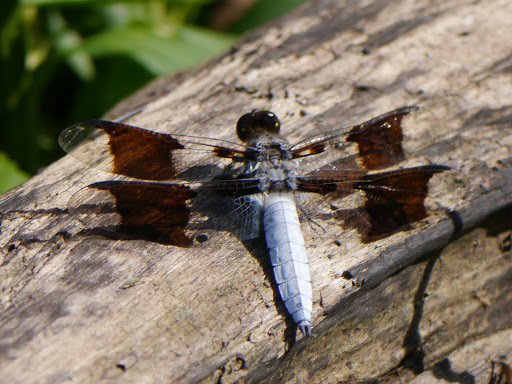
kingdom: Animalia
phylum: Arthropoda
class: Insecta
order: Odonata
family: Libellulidae
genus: Plathemis
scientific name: Plathemis lydia
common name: Common whitetail
